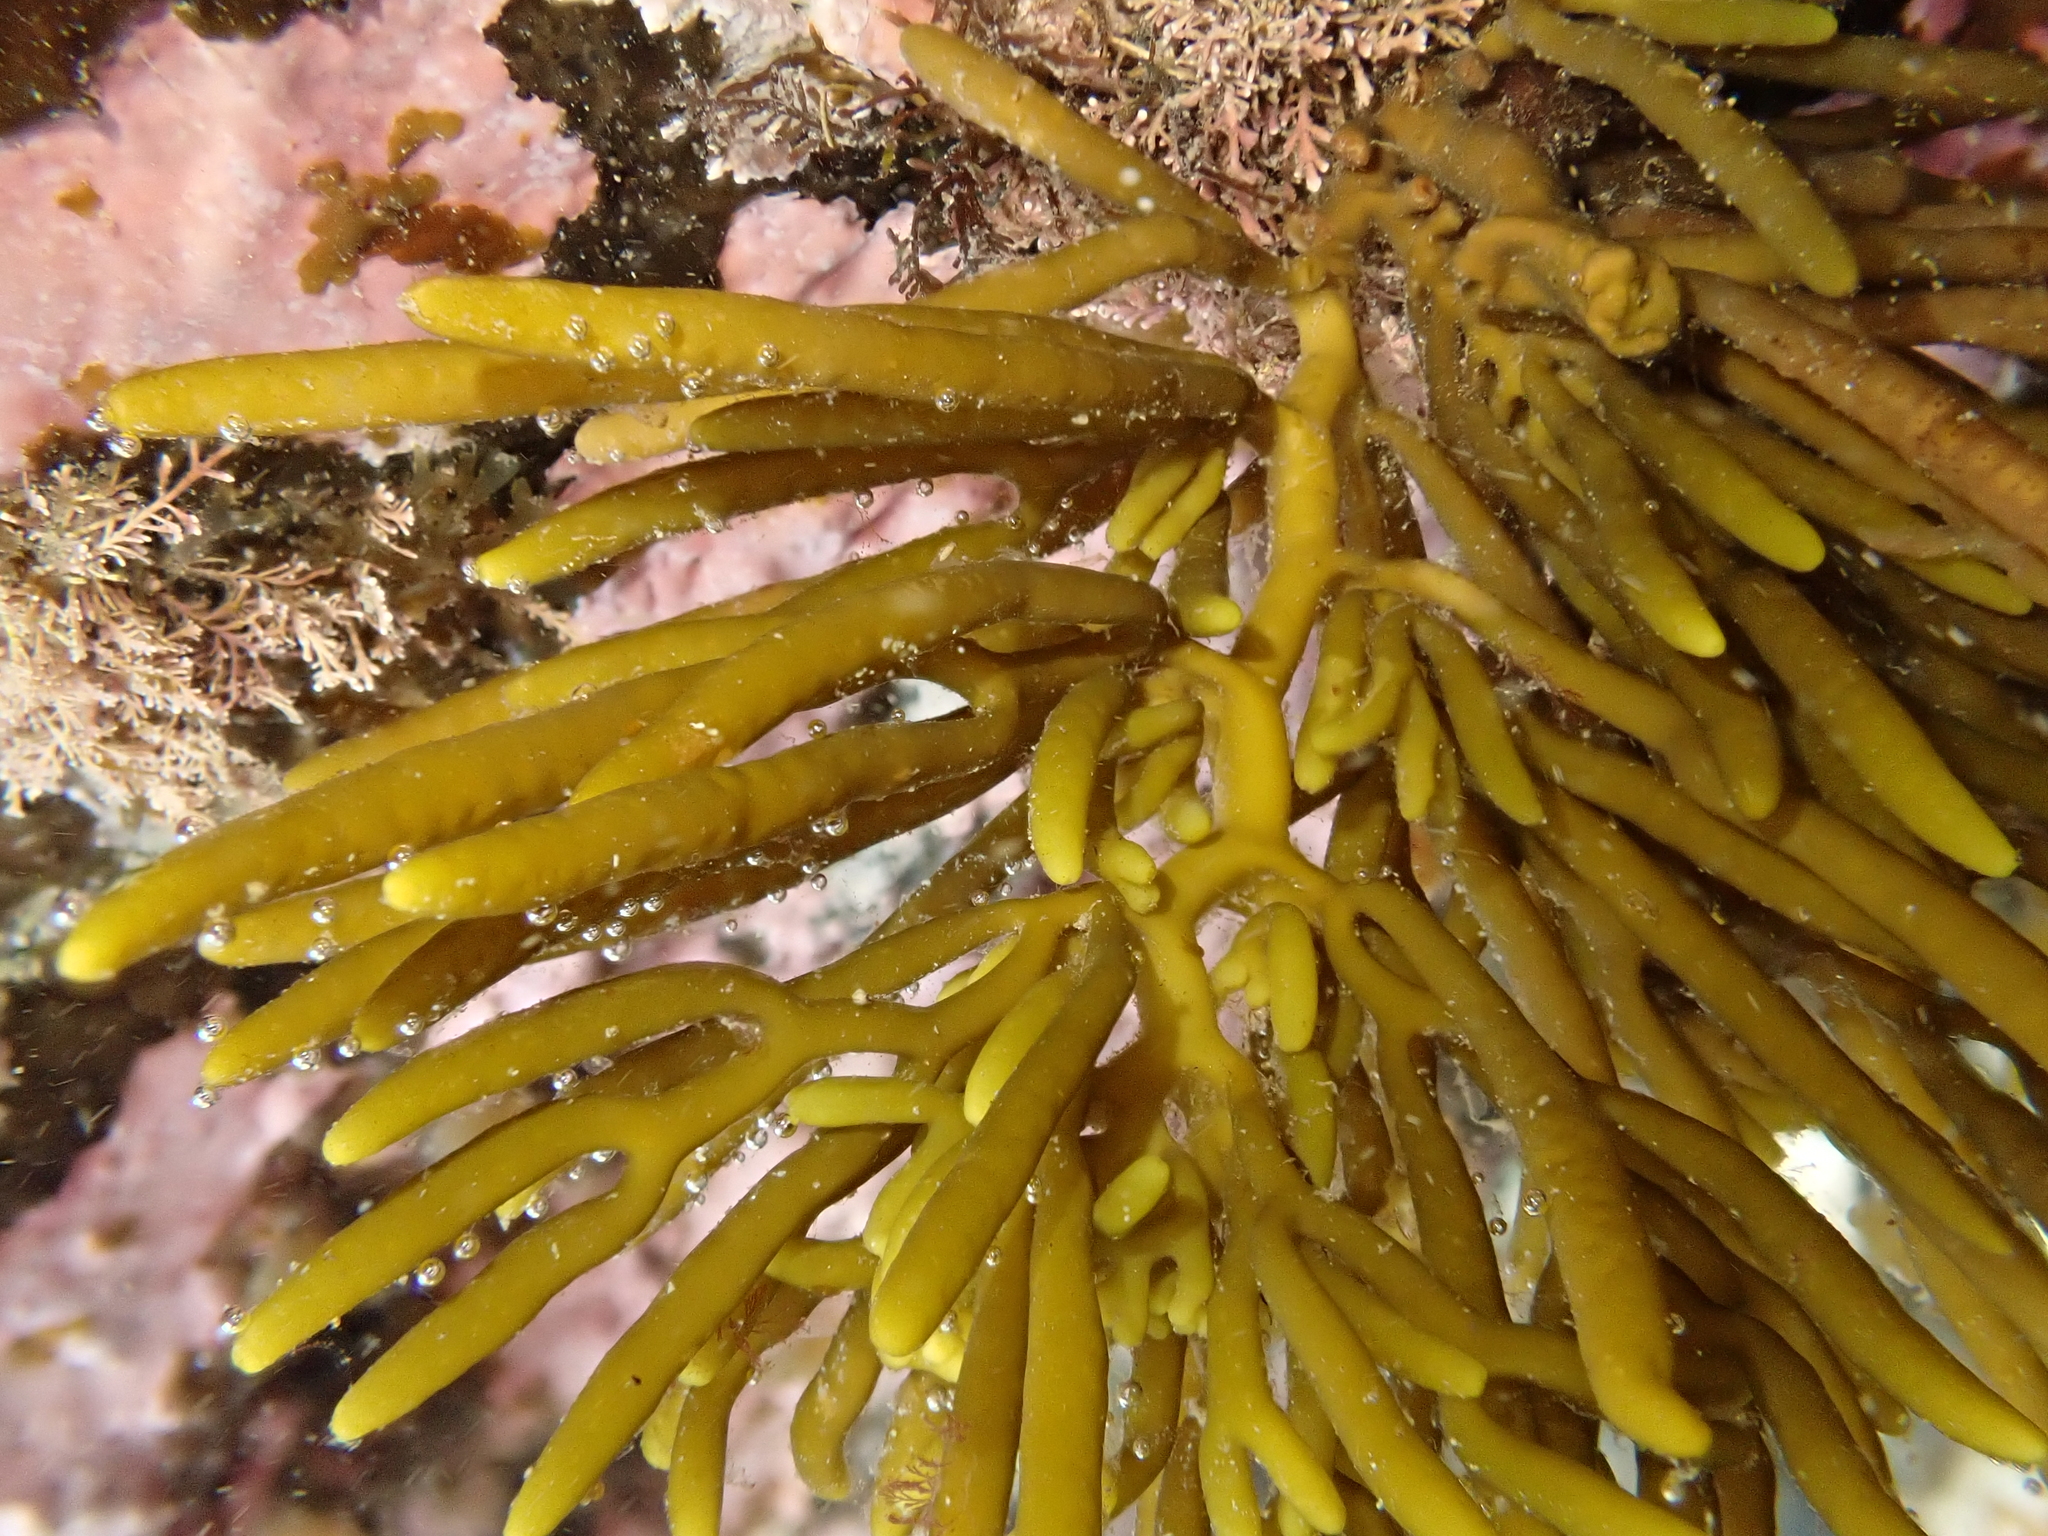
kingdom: Chromista
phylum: Ochrophyta
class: Phaeophyceae
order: Fucales
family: Sargassaceae
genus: Cystophora
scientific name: Cystophora retroflexa
